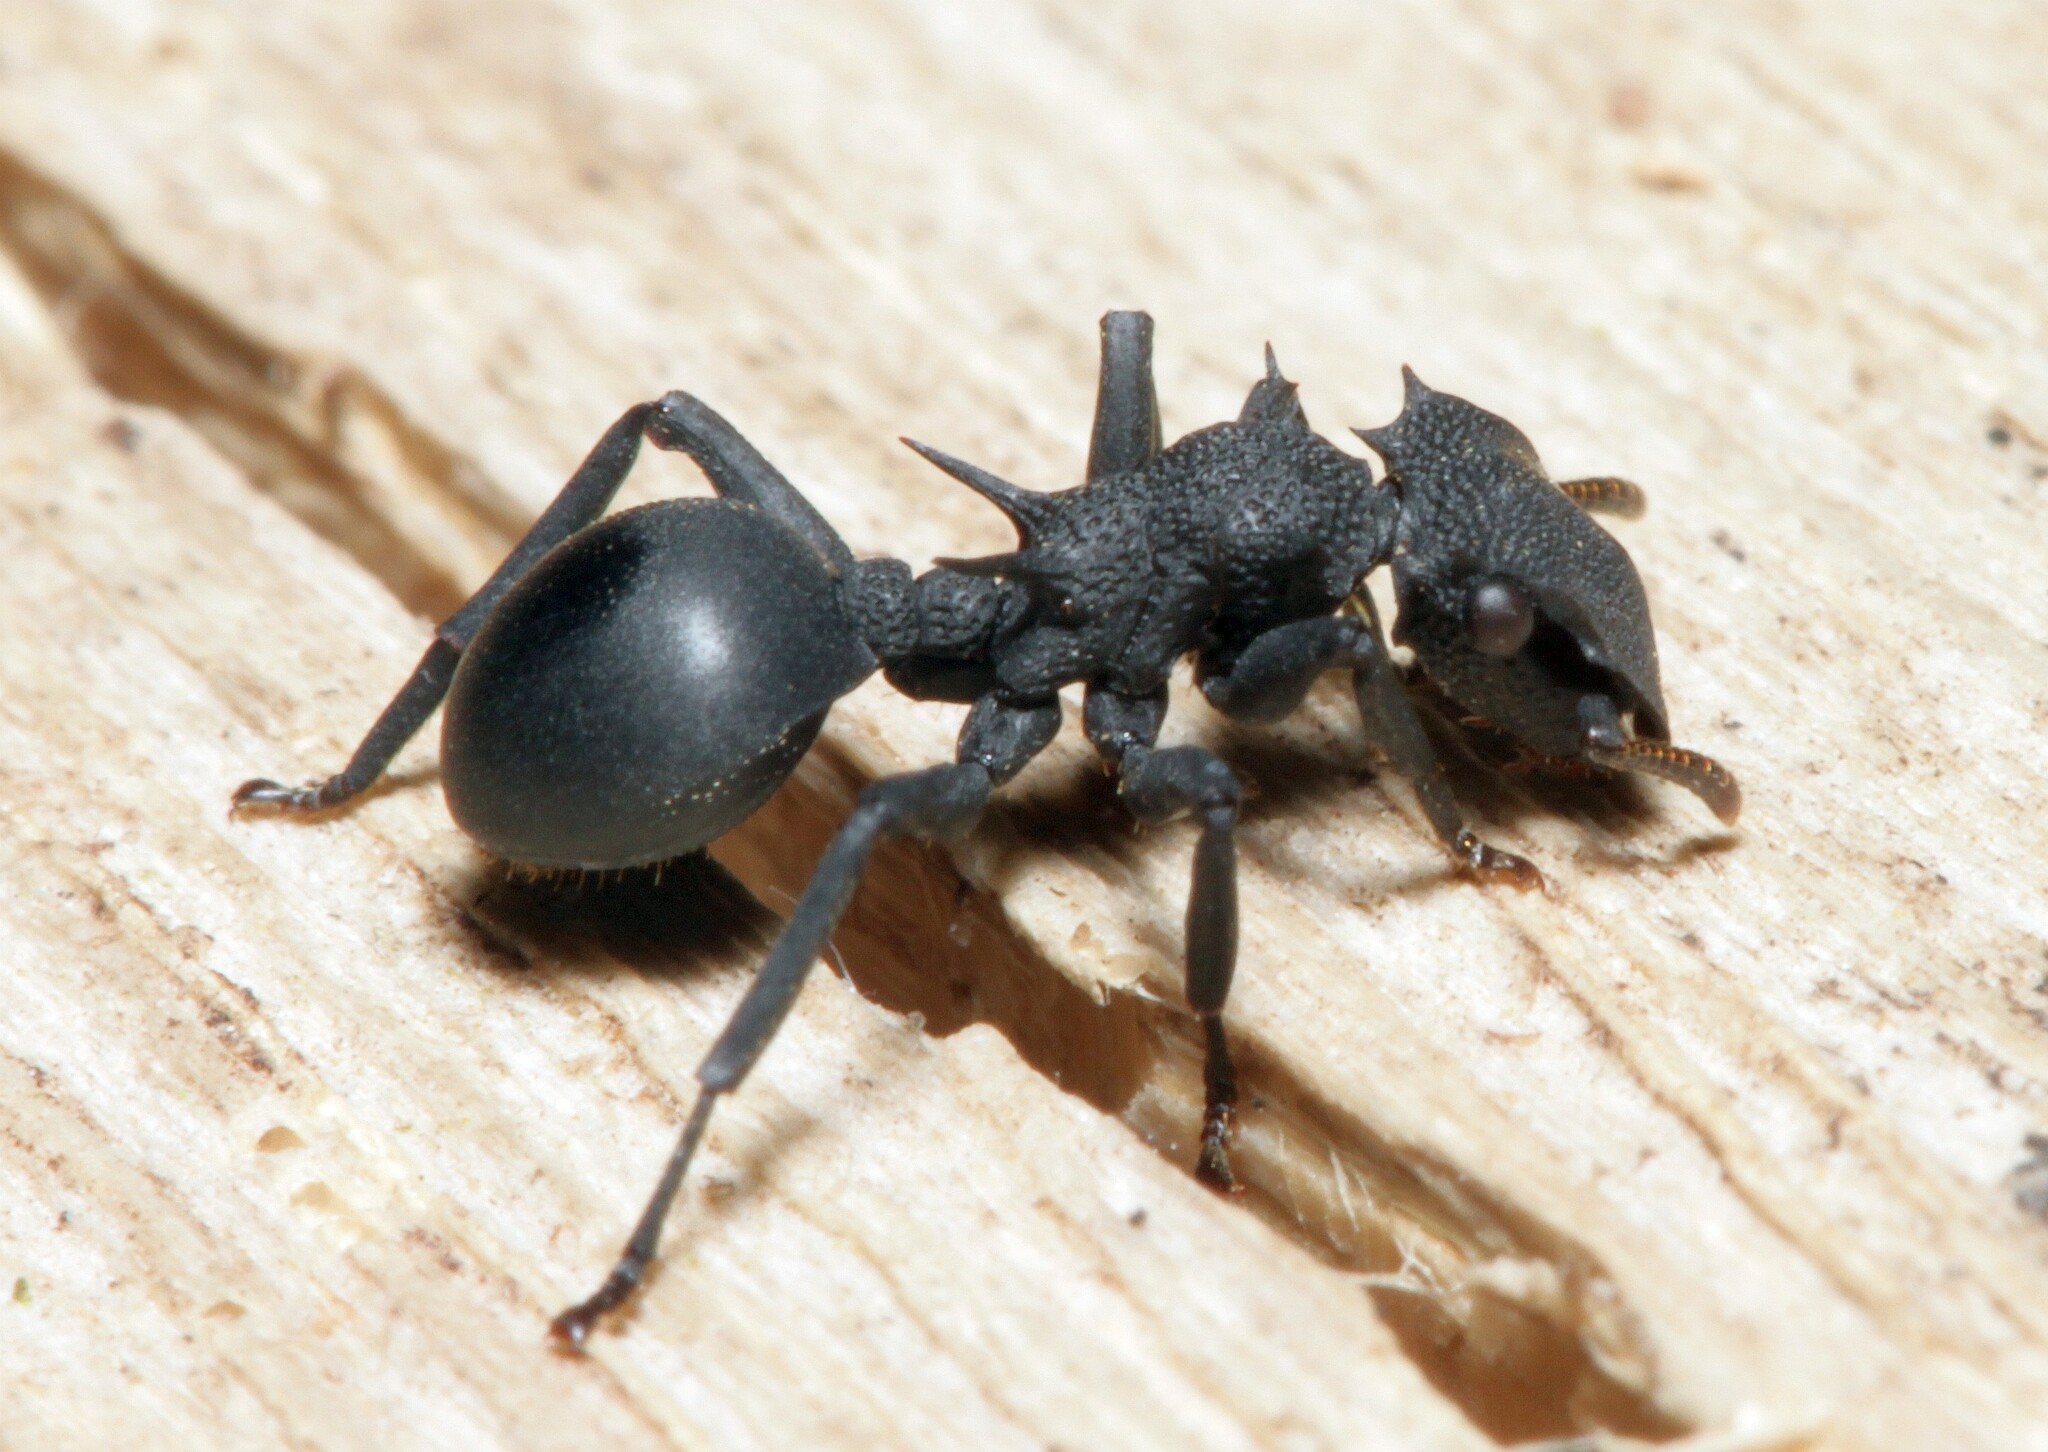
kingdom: Animalia
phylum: Arthropoda
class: Insecta
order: Hymenoptera
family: Formicidae
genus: Cephalotes
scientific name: Cephalotes placidus
